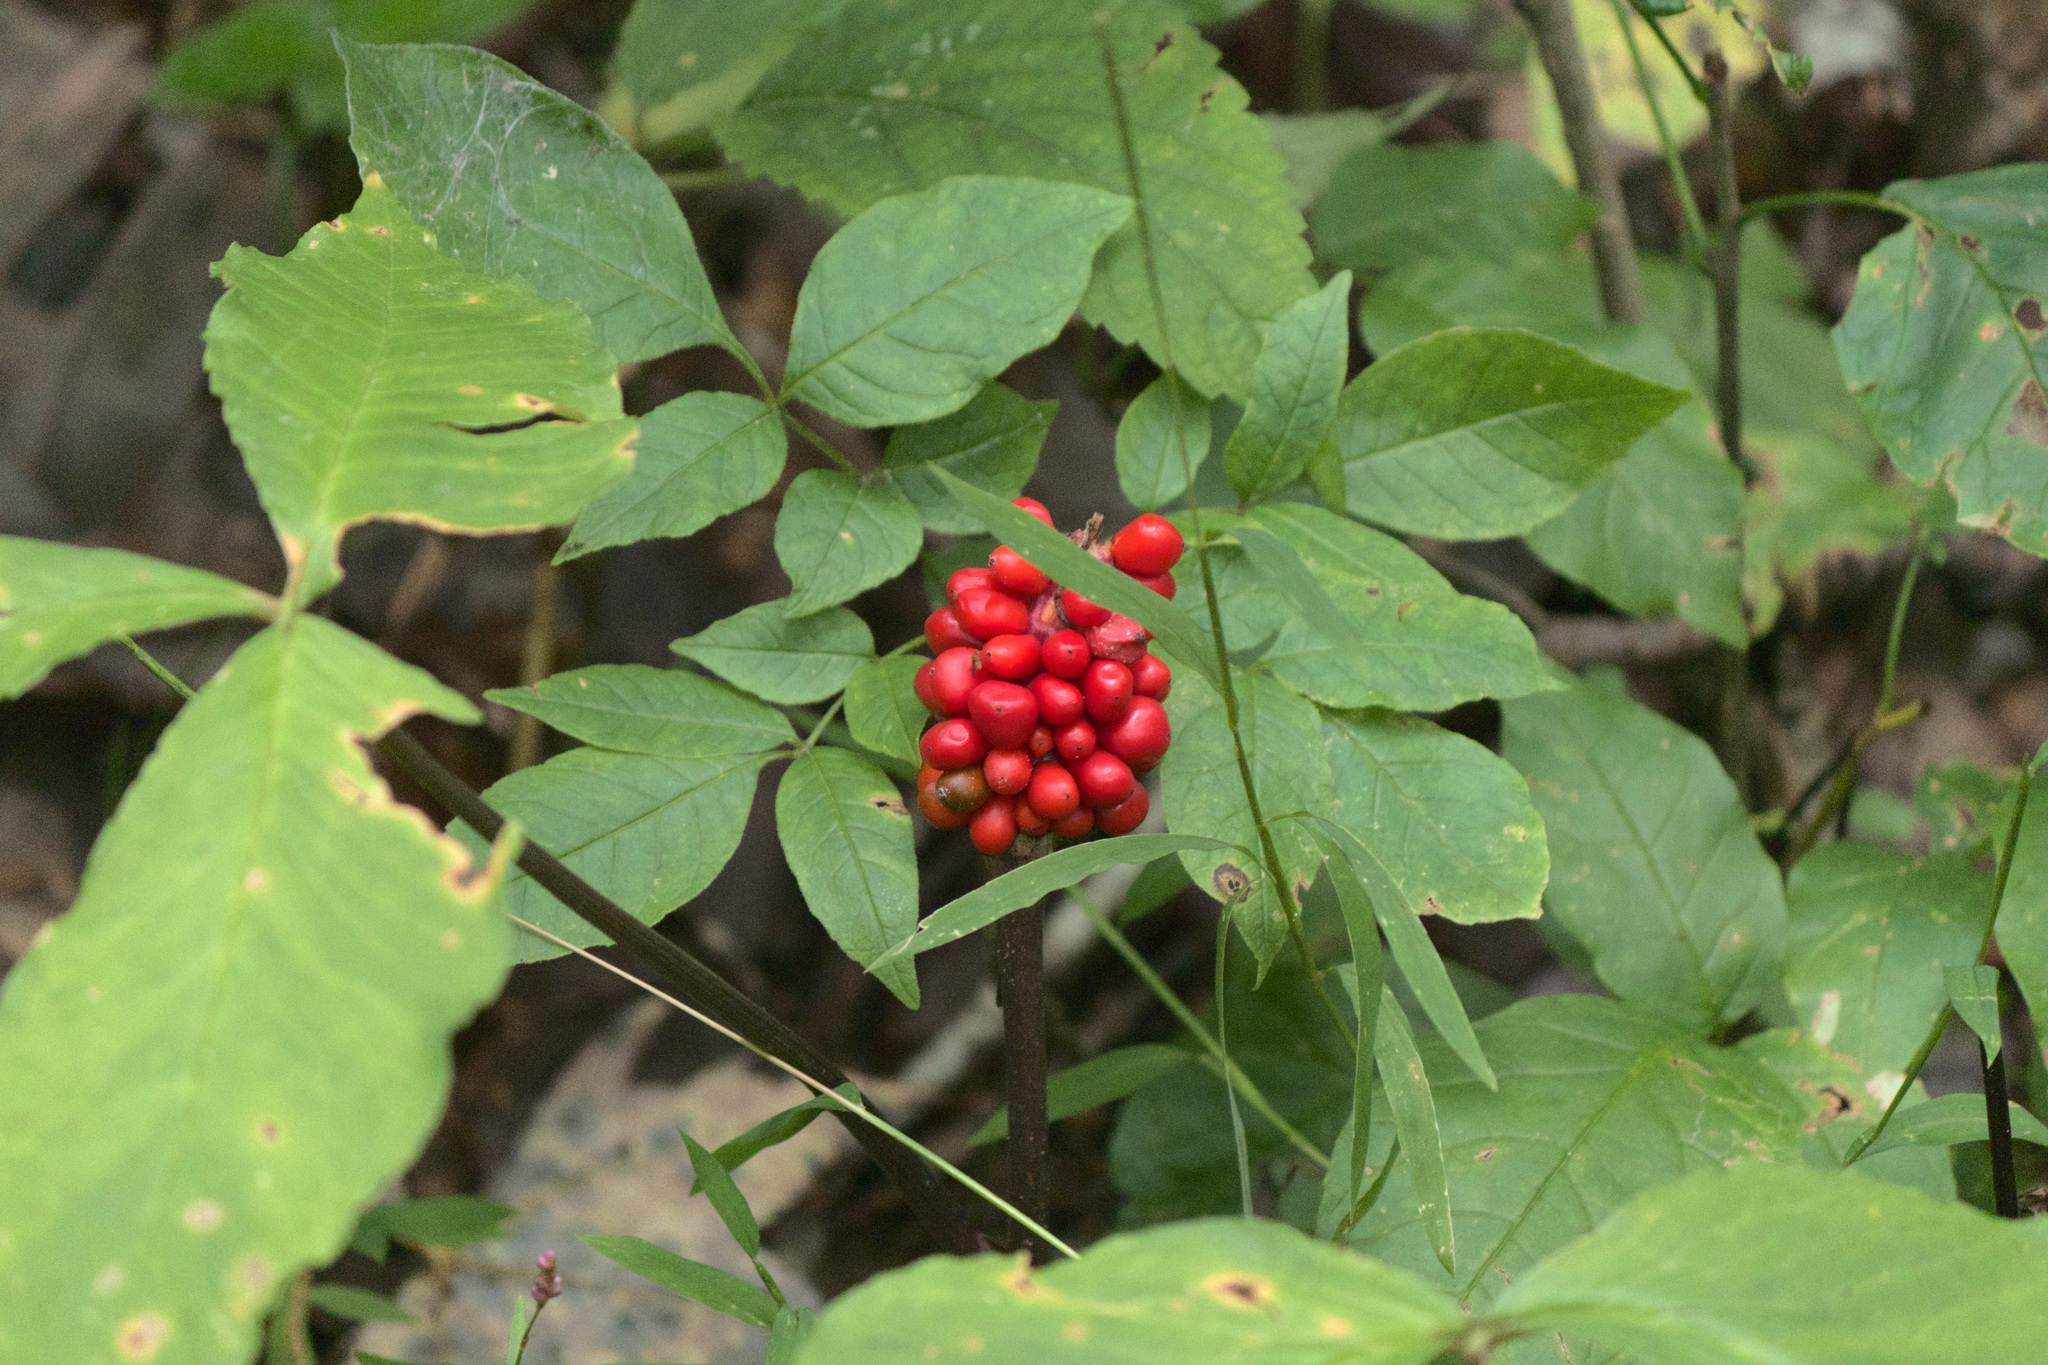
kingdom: Plantae
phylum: Tracheophyta
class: Liliopsida
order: Alismatales
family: Araceae
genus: Arisaema
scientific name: Arisaema triphyllum
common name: Jack-in-the-pulpit
